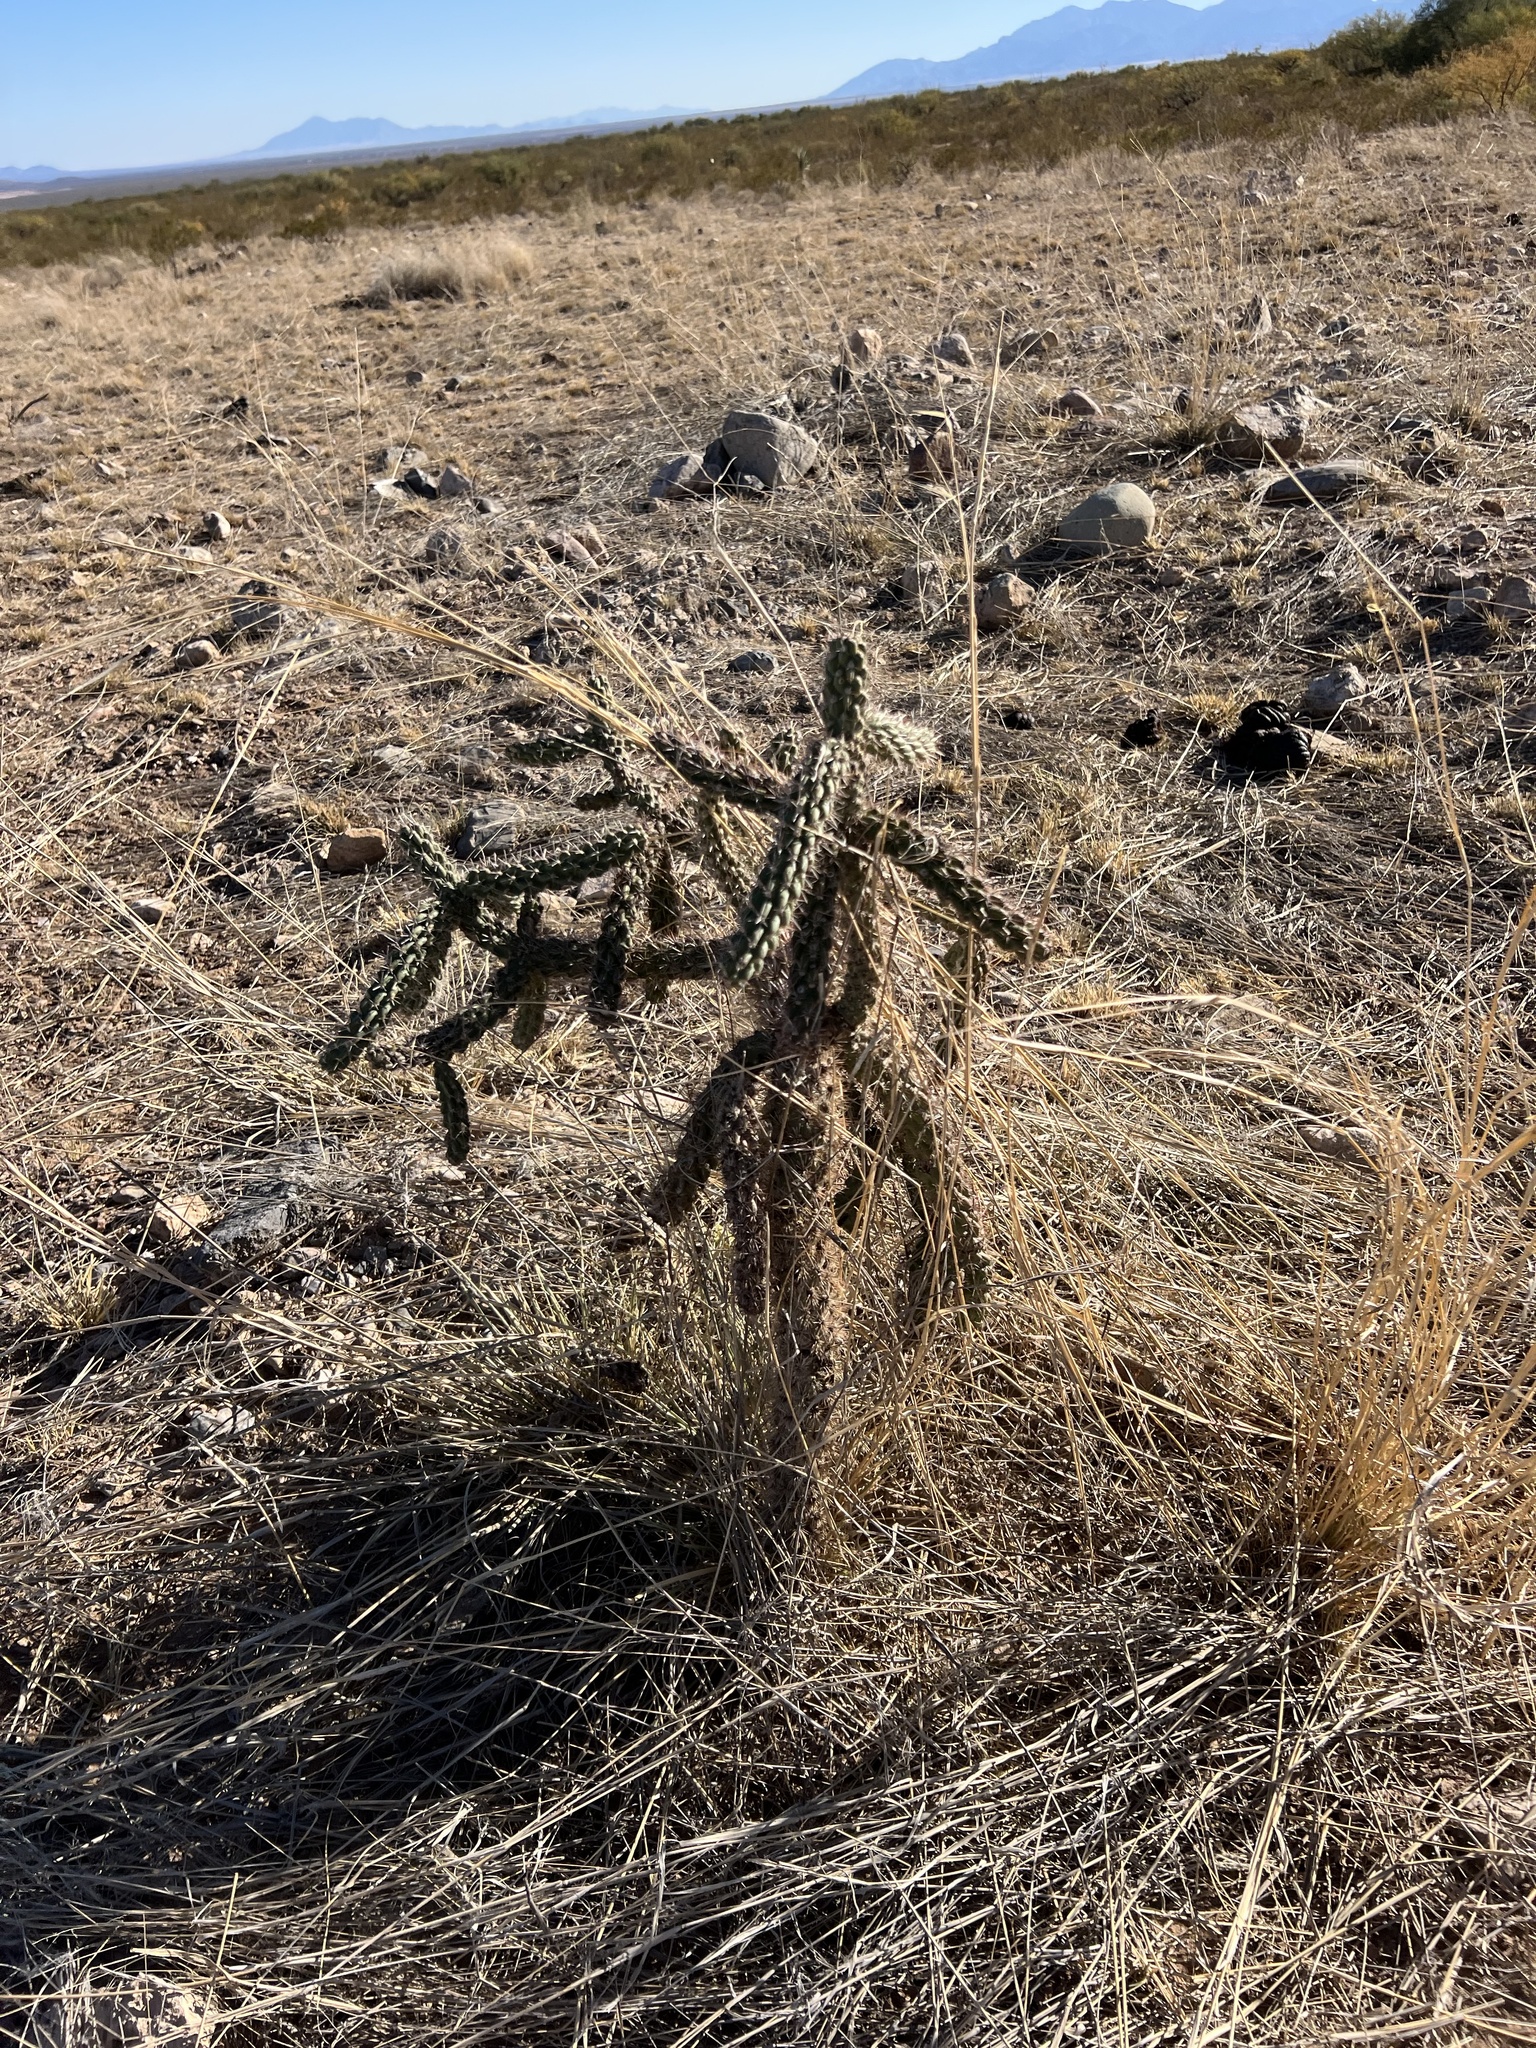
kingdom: Plantae
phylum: Tracheophyta
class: Magnoliopsida
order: Caryophyllales
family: Cactaceae
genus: Cylindropuntia
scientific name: Cylindropuntia imbricata
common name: Candelabrum cactus
